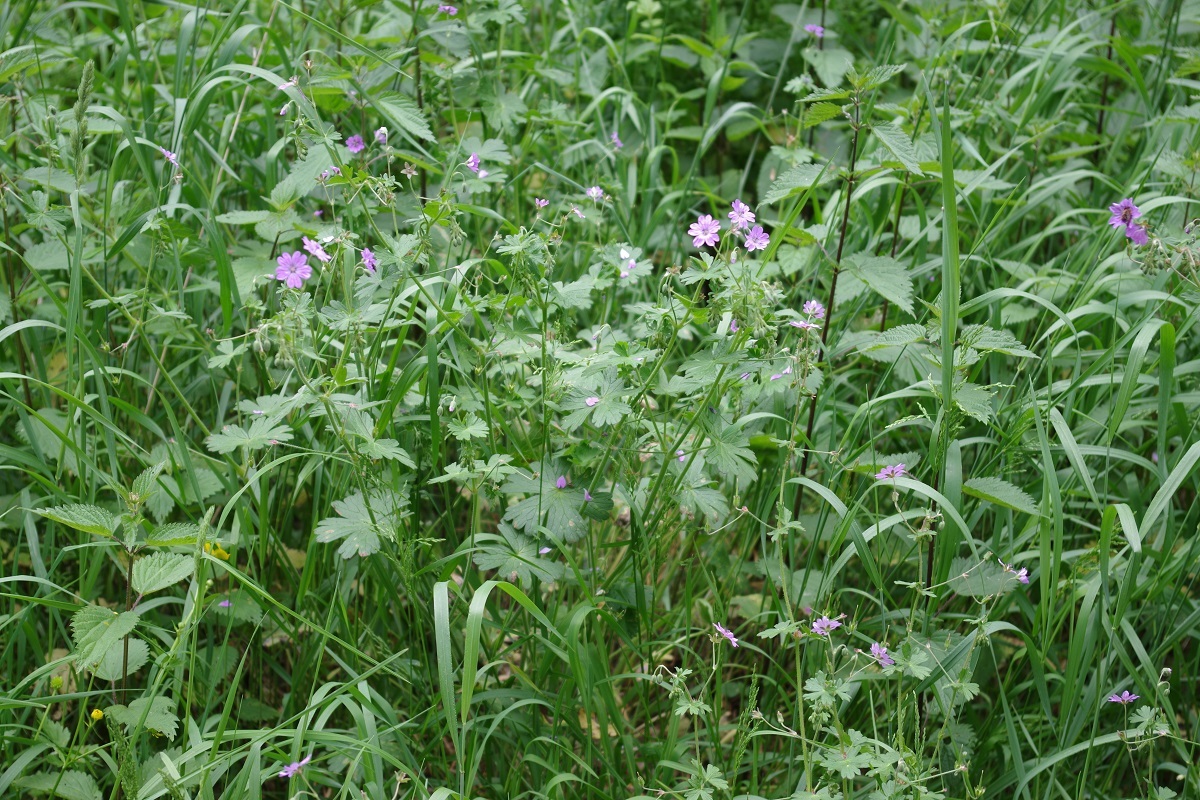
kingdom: Plantae
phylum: Tracheophyta
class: Magnoliopsida
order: Geraniales
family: Geraniaceae
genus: Geranium
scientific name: Geranium pyrenaicum
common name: Hedgerow crane's-bill
